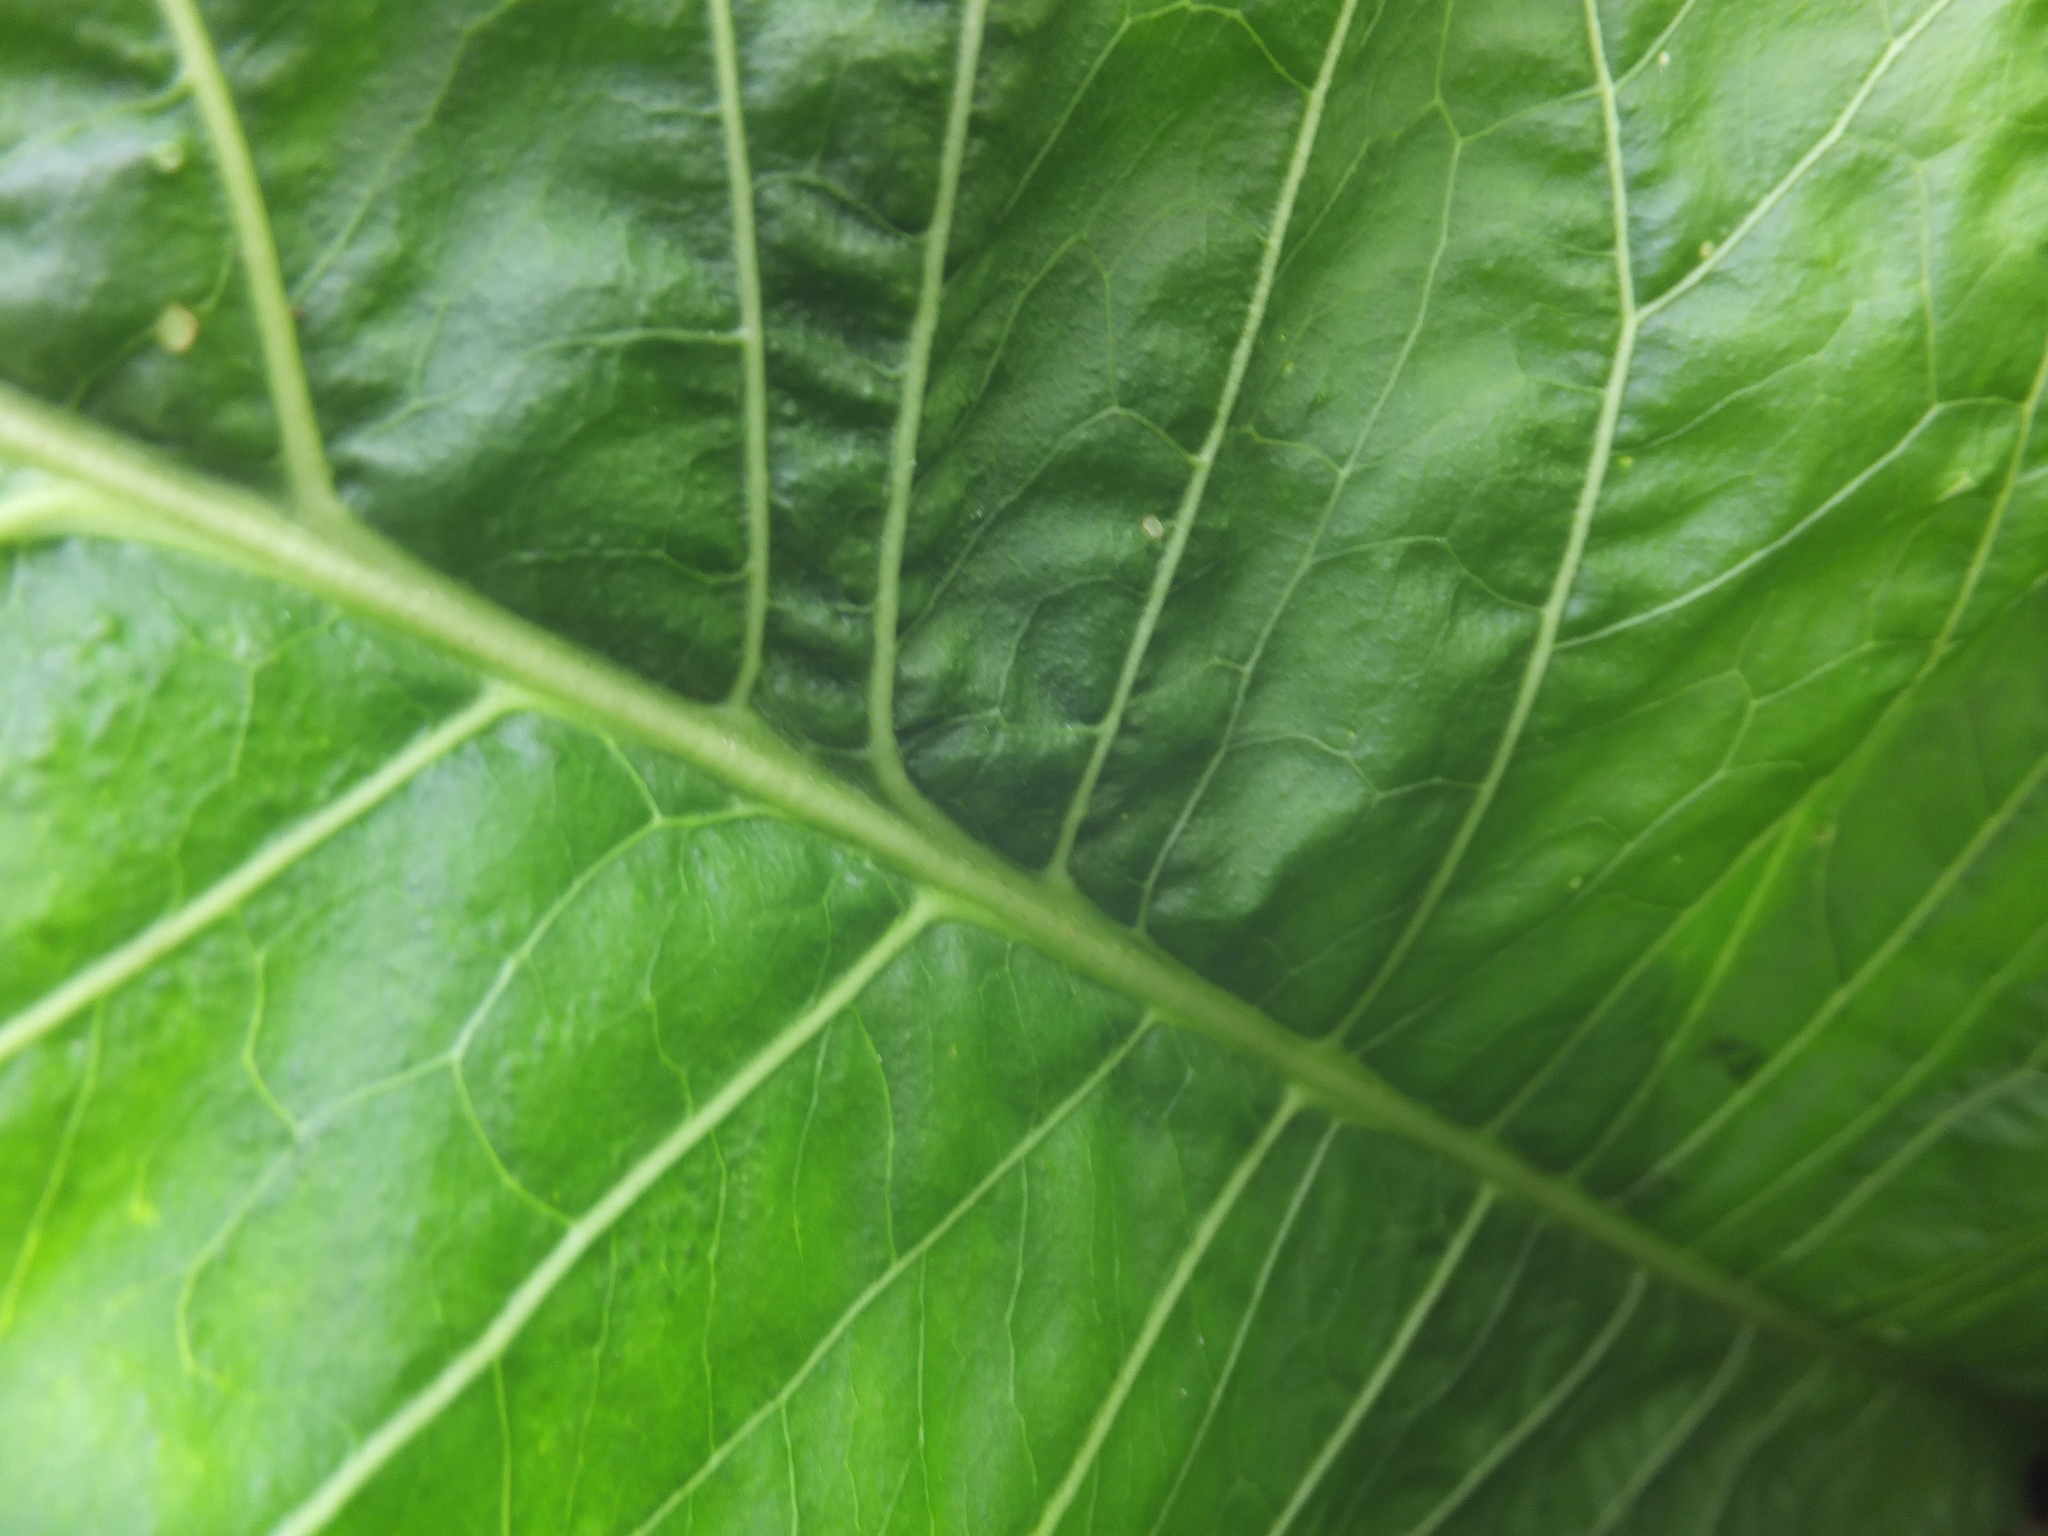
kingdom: Plantae
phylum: Tracheophyta
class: Magnoliopsida
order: Brassicales
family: Brassicaceae
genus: Armoracia
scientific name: Armoracia rusticana
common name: Horseradish
